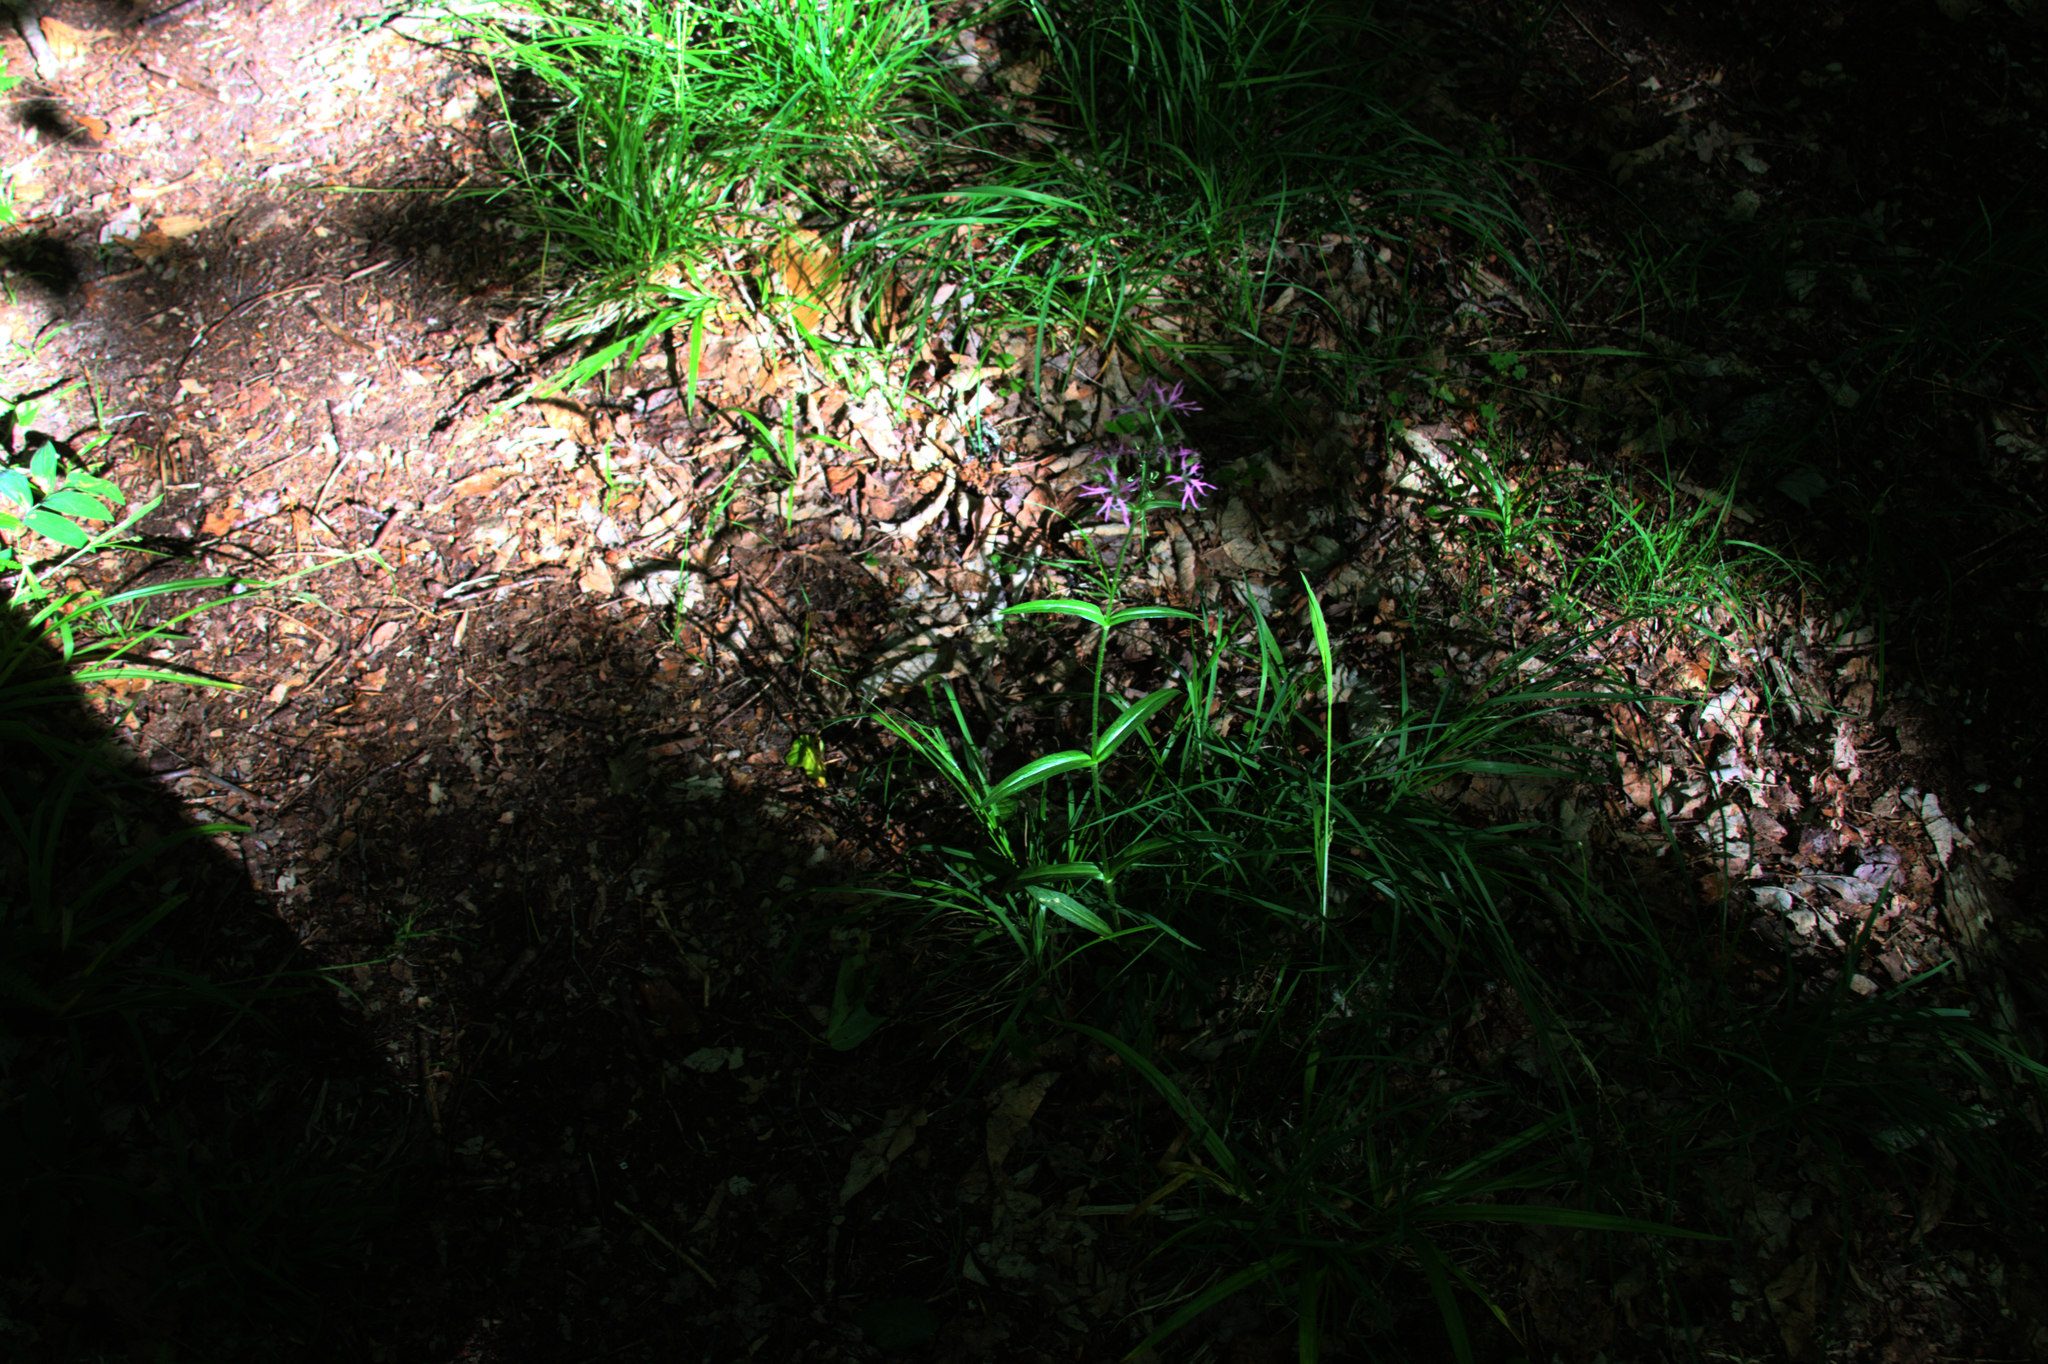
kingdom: Plantae
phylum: Tracheophyta
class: Magnoliopsida
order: Caryophyllales
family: Caryophyllaceae
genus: Silene
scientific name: Silene flos-cuculi
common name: Ragged-robin
